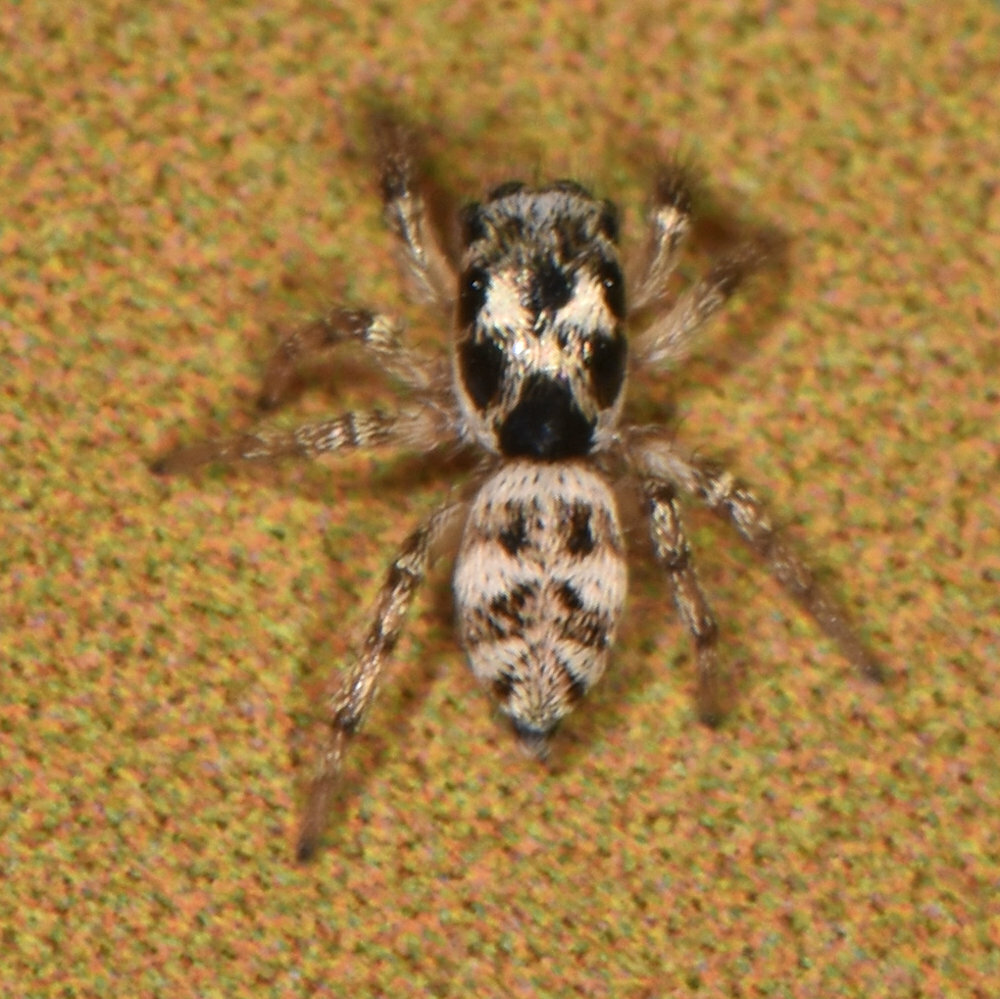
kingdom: Animalia
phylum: Arthropoda
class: Arachnida
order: Araneae
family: Salticidae
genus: Salticus
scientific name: Salticus scenicus
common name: Zebra jumper
